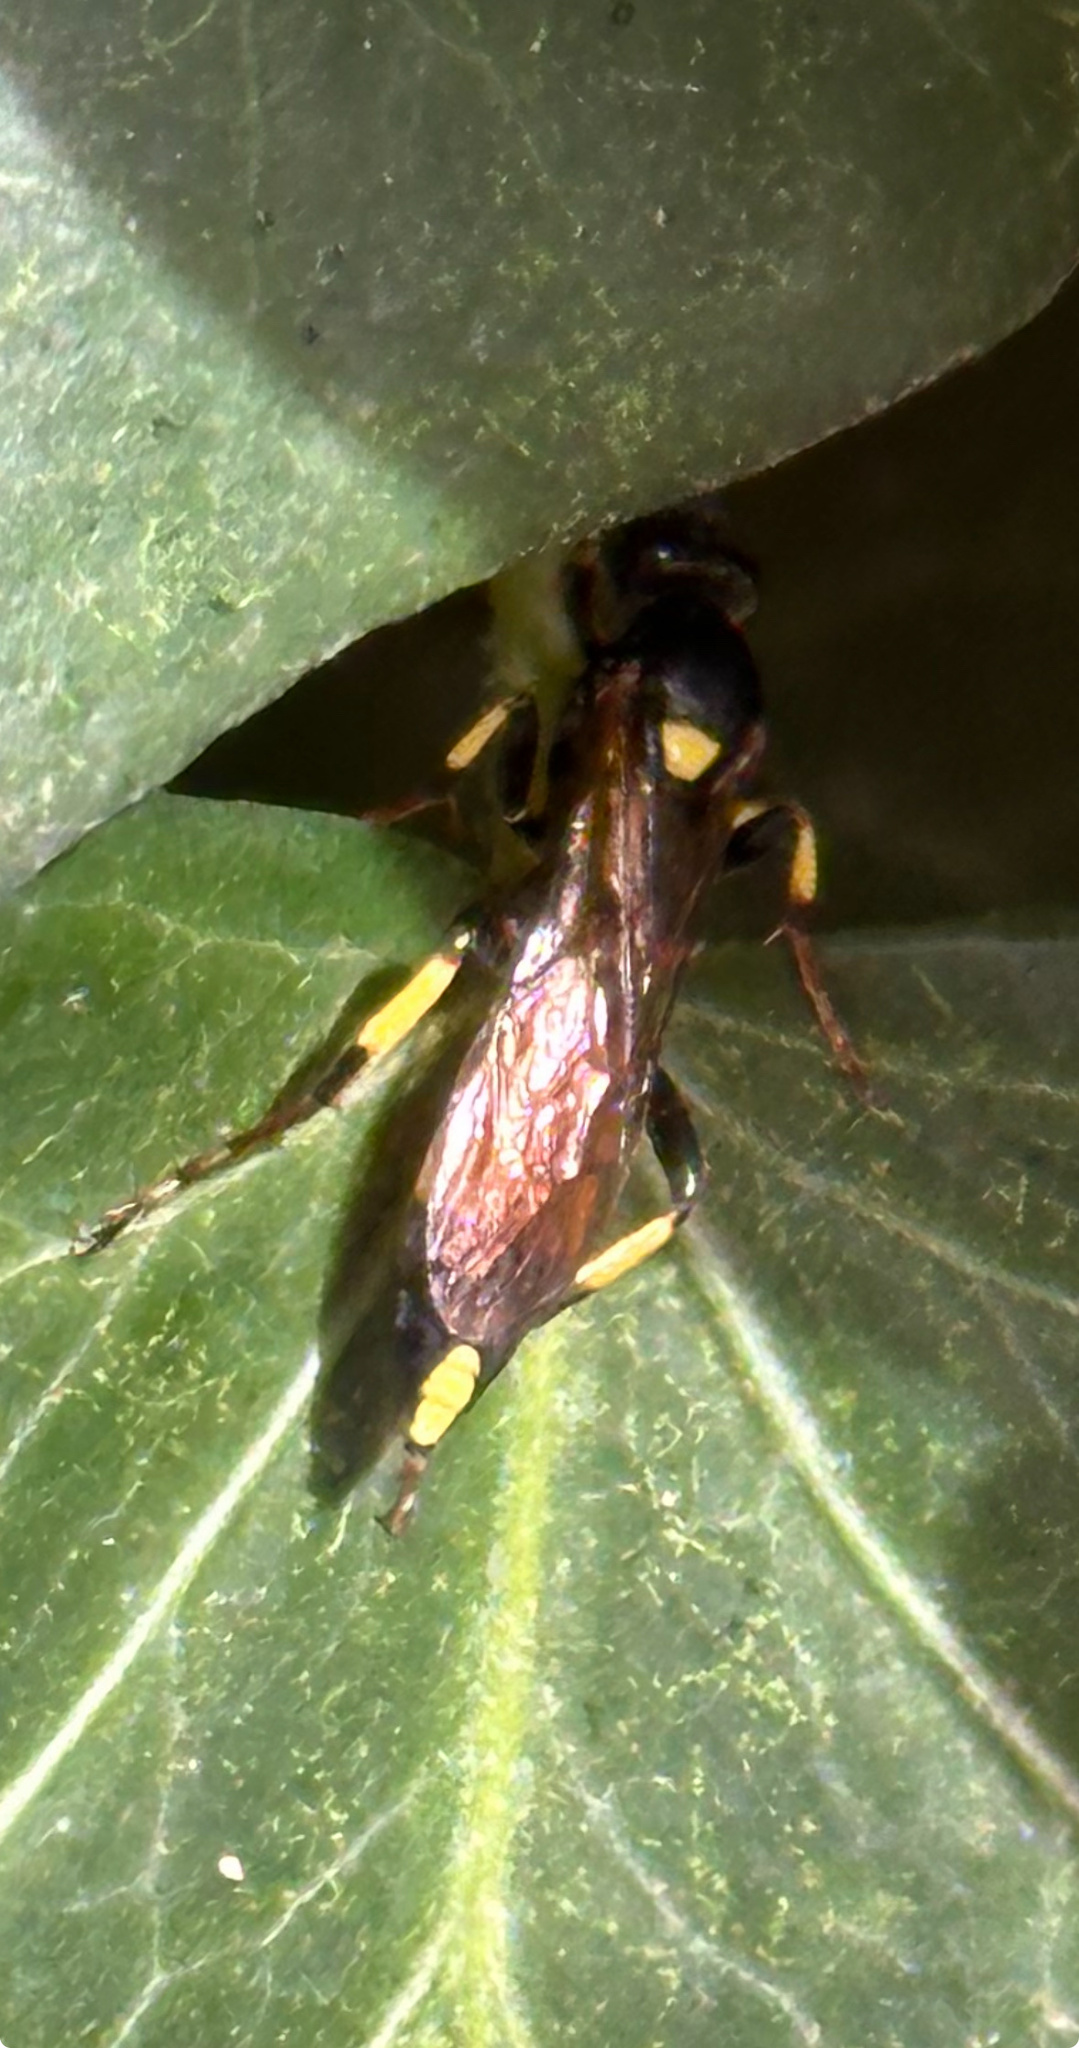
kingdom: Animalia
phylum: Arthropoda
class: Insecta
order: Hymenoptera
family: Ichneumonidae
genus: Ichneumon
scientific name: Ichneumon stramentor
